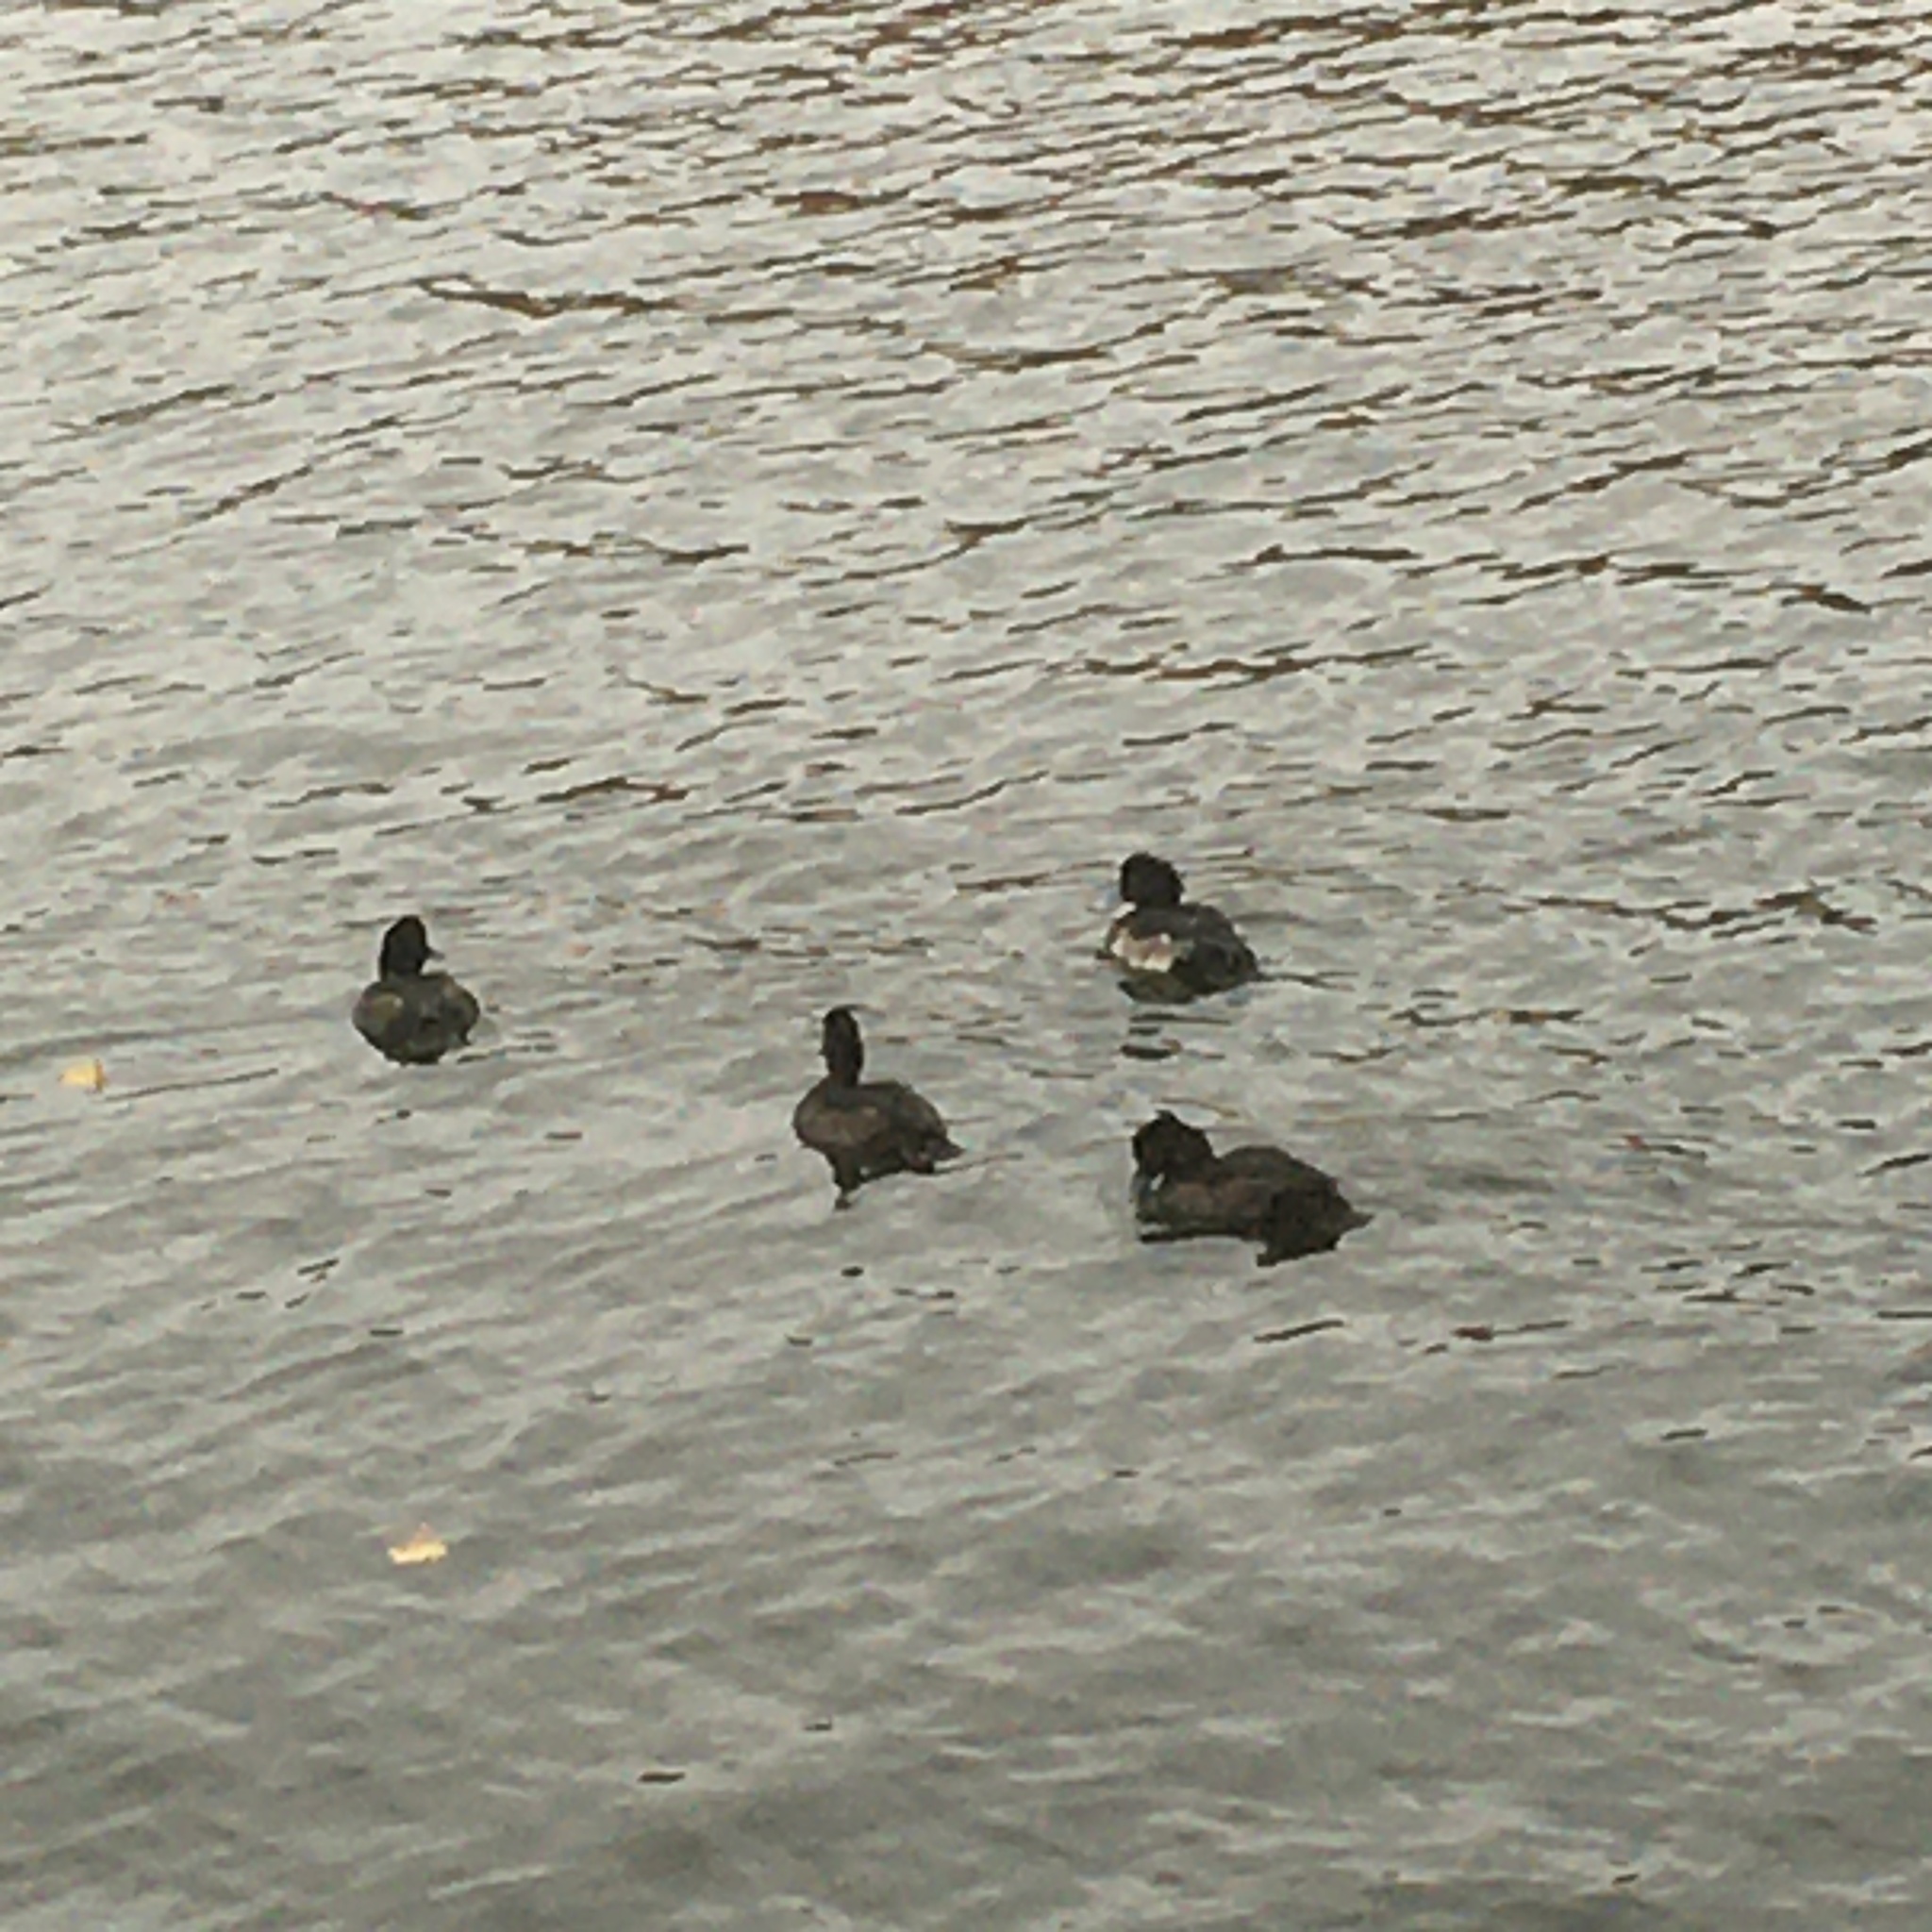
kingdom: Animalia
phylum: Chordata
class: Aves
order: Anseriformes
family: Anatidae
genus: Aythya
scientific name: Aythya fuligula
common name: Tufted duck
